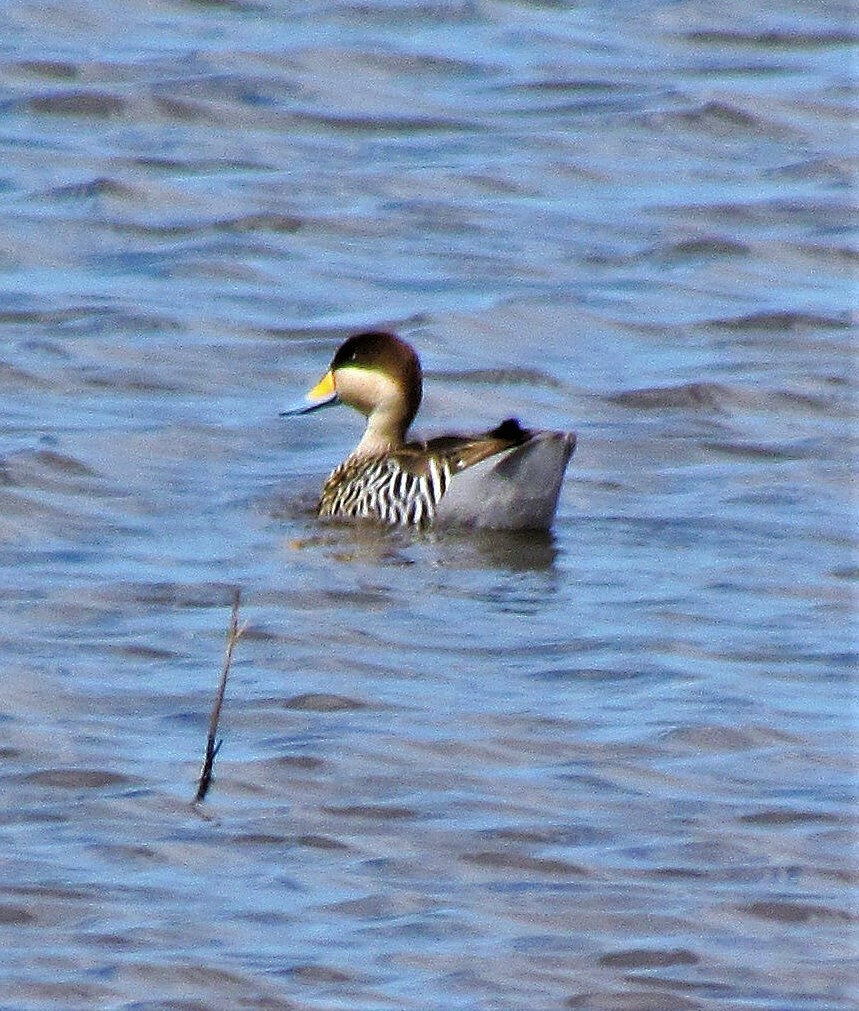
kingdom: Animalia
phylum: Chordata
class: Aves
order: Anseriformes
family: Anatidae
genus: Spatula
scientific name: Spatula versicolor
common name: Silver teal
